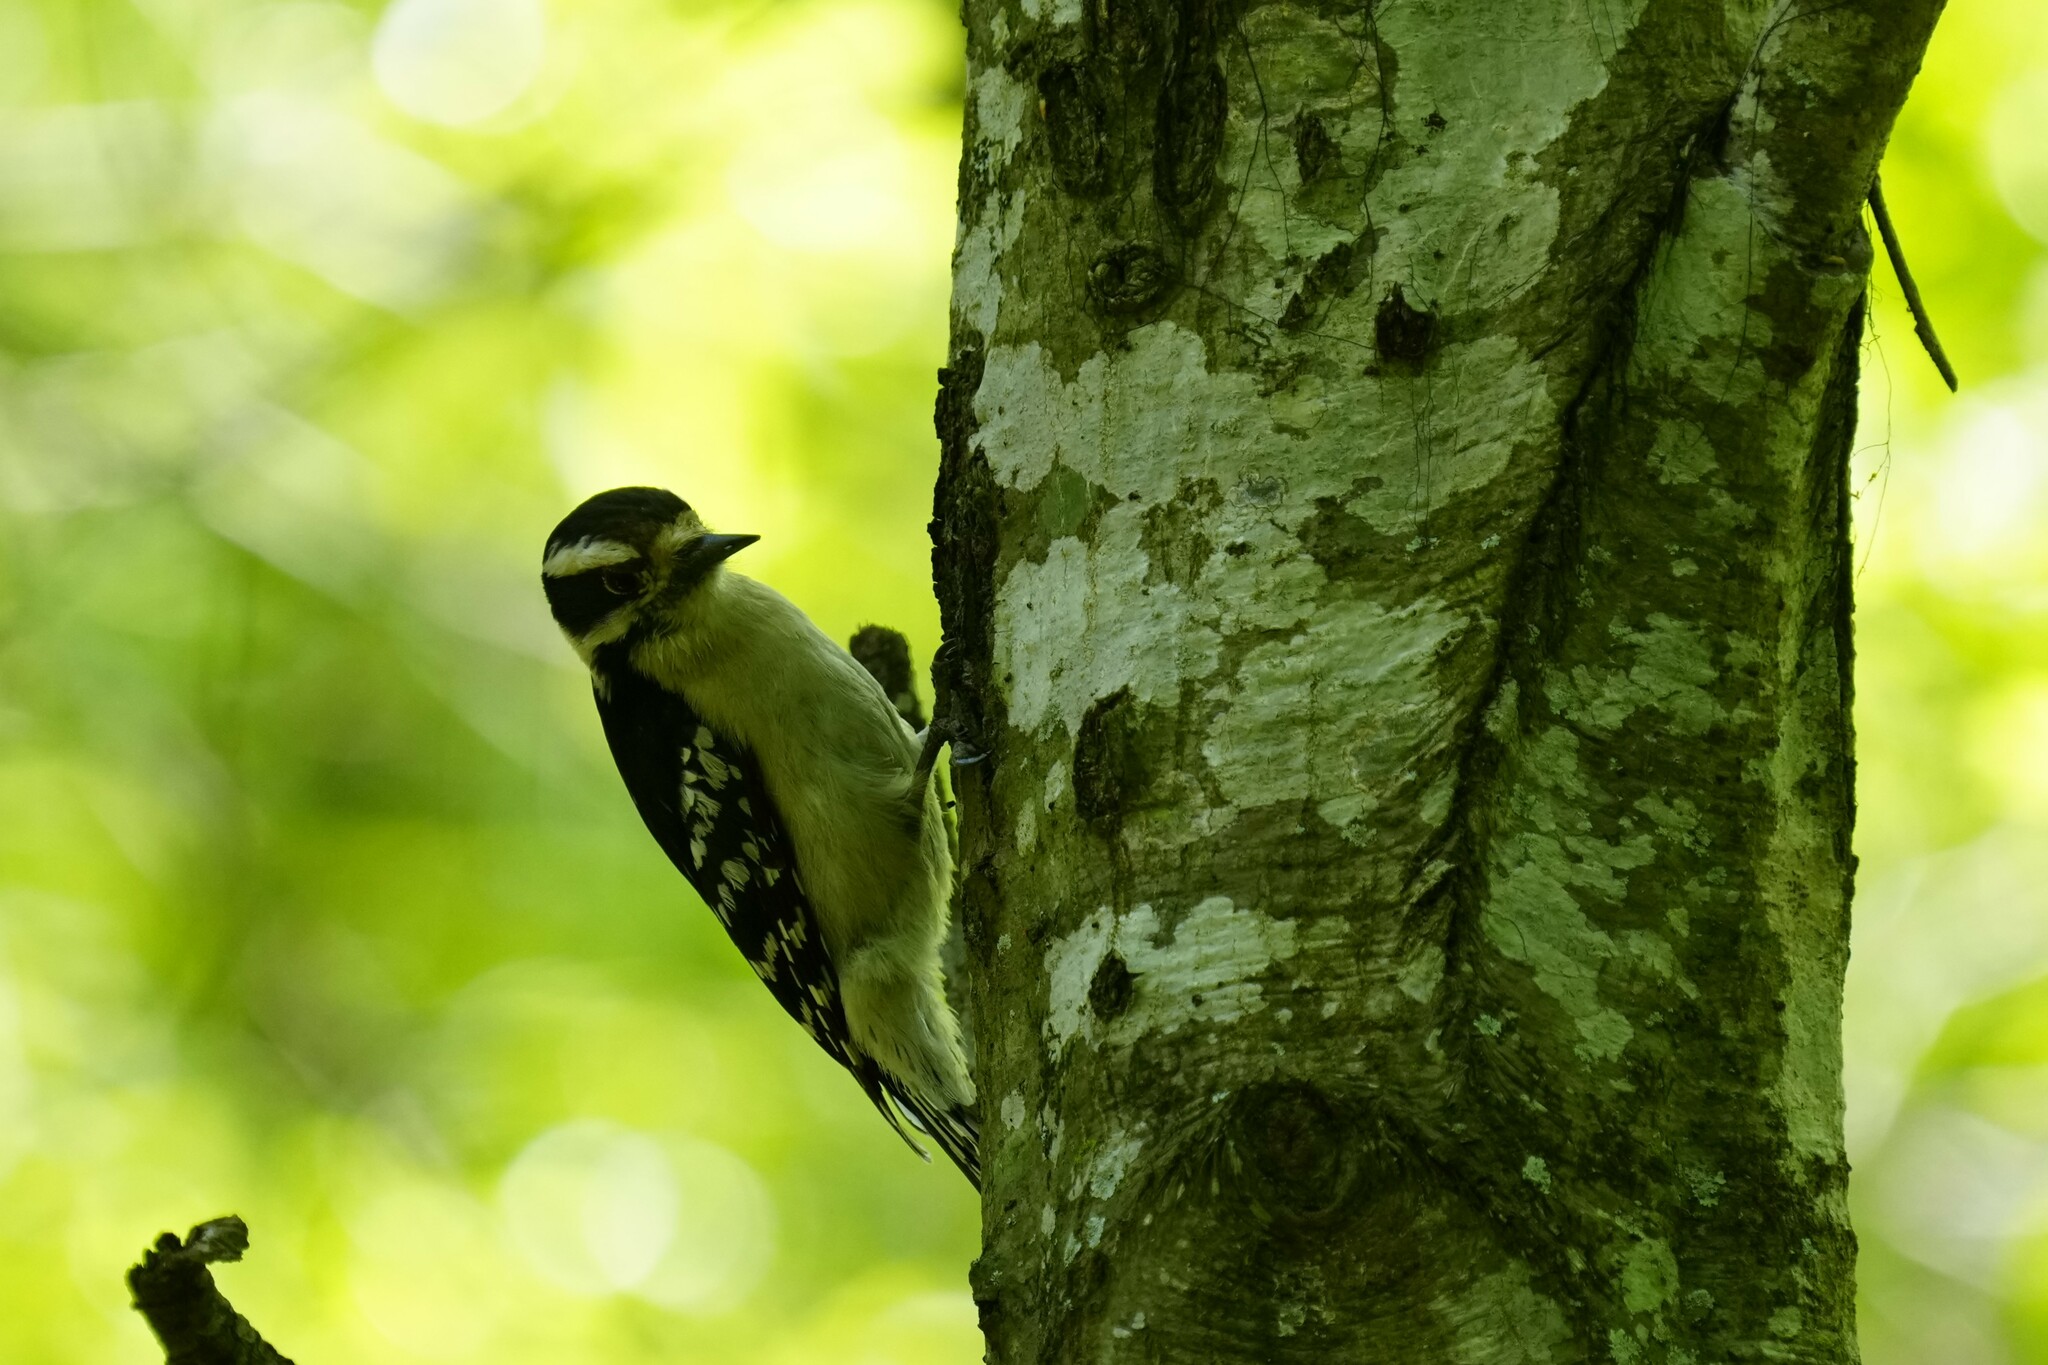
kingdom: Animalia
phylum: Chordata
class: Aves
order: Piciformes
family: Picidae
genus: Dryobates
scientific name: Dryobates pubescens
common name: Downy woodpecker
